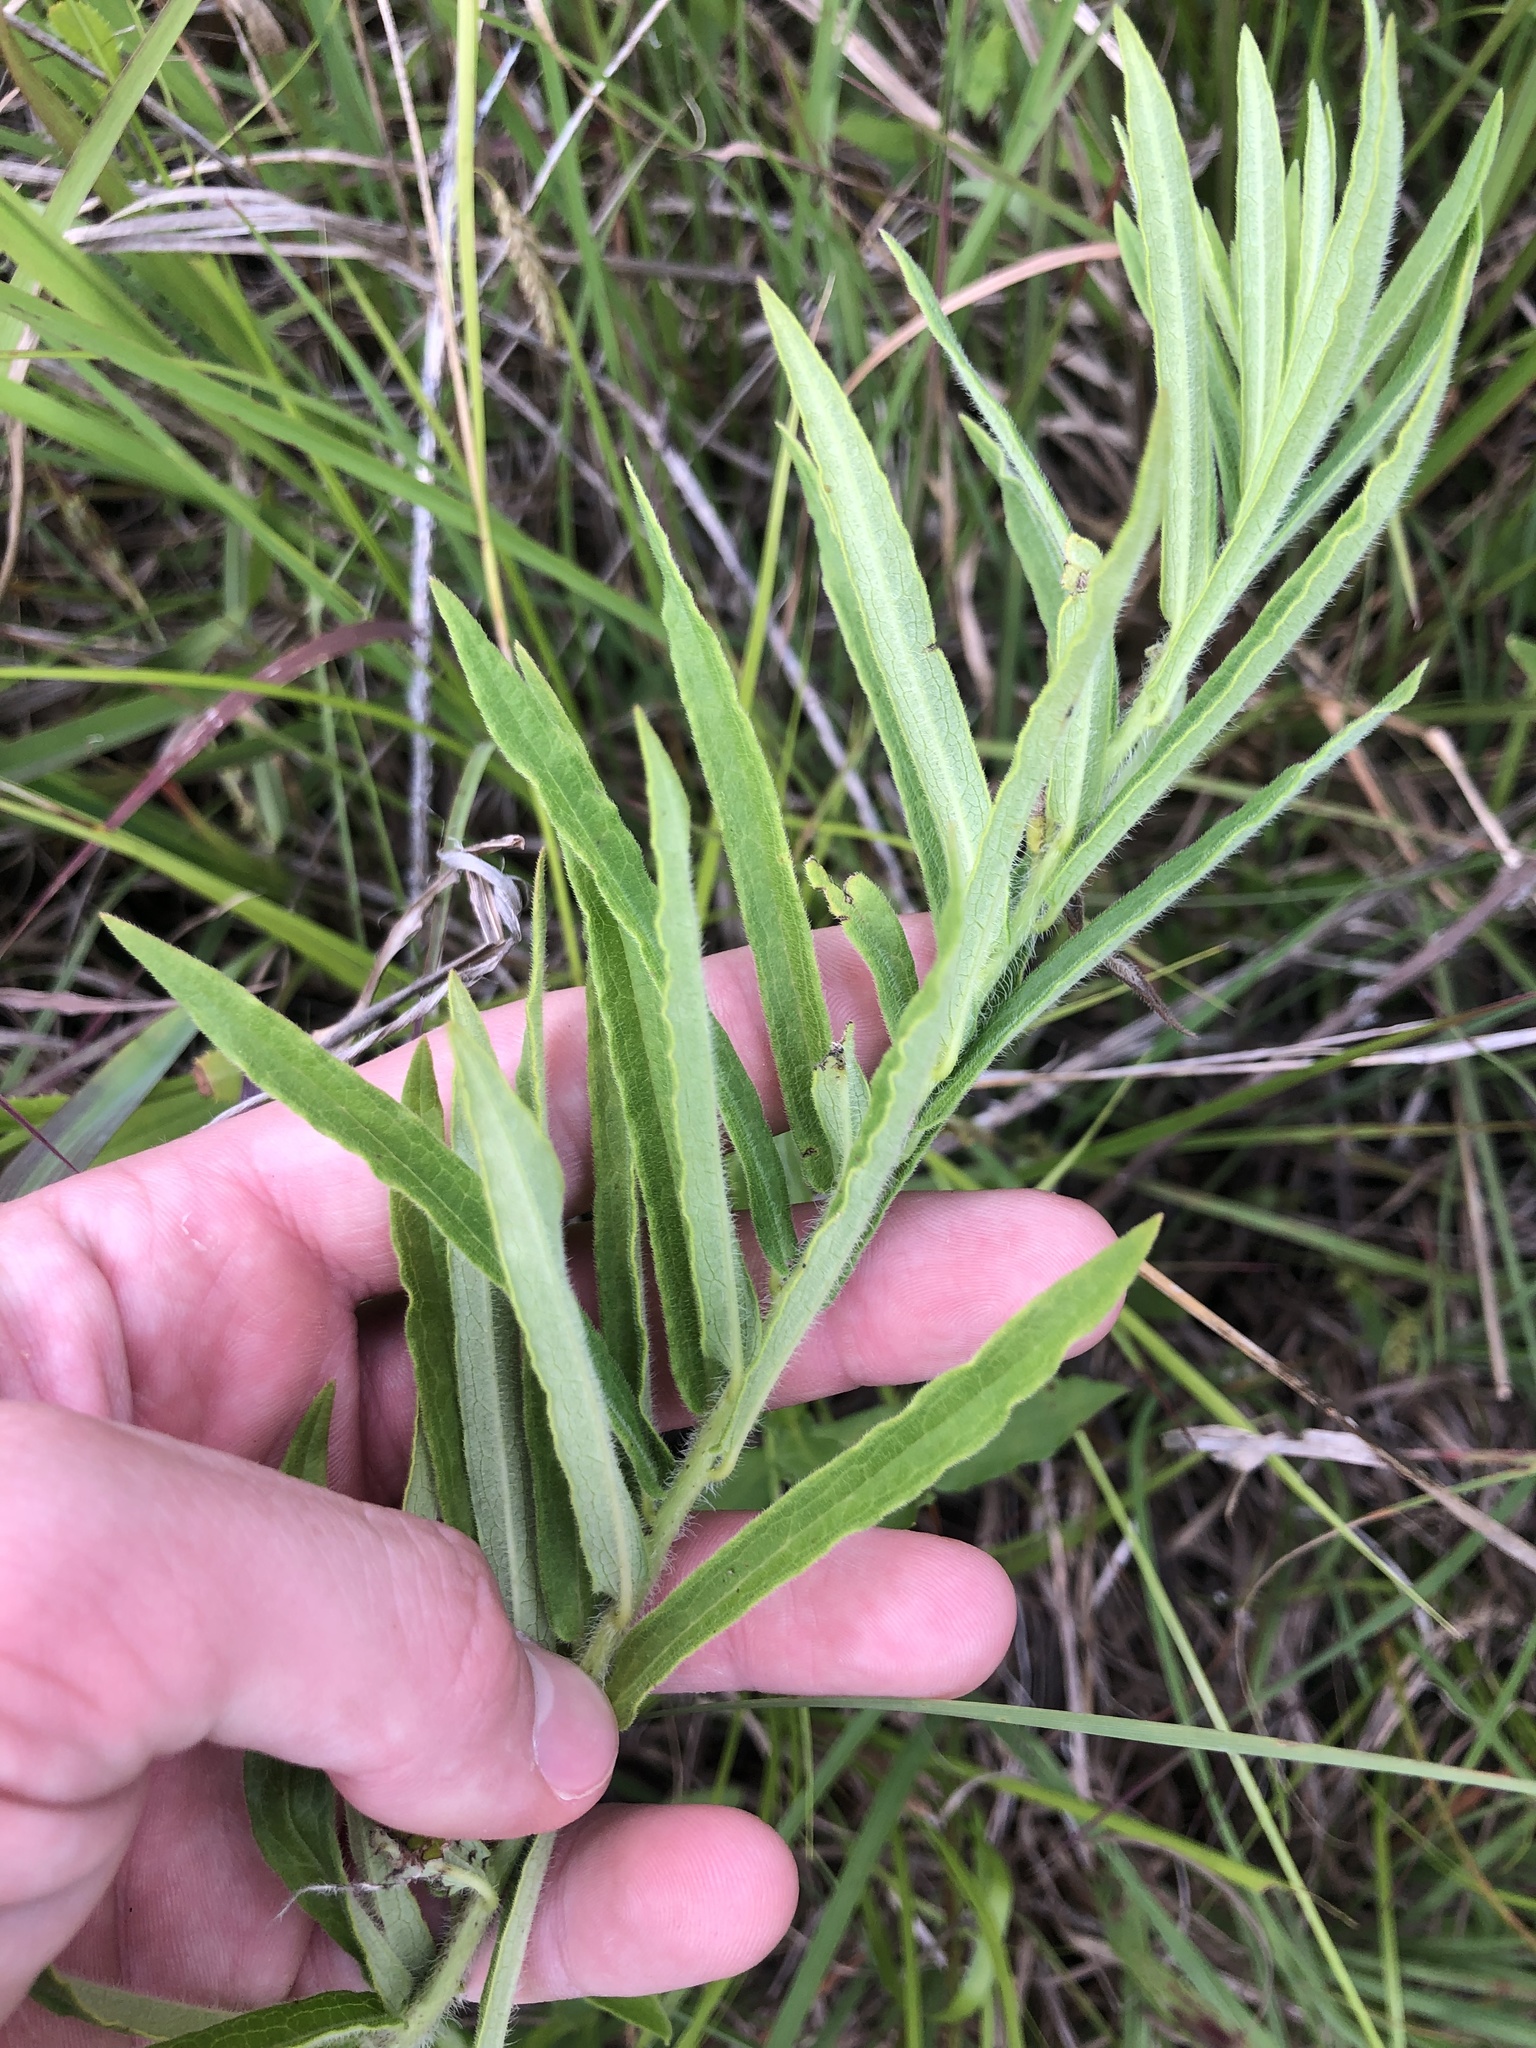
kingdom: Plantae
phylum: Tracheophyta
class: Magnoliopsida
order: Gentianales
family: Apocynaceae
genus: Asclepias
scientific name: Asclepias tuberosa
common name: Butterfly milkweed
